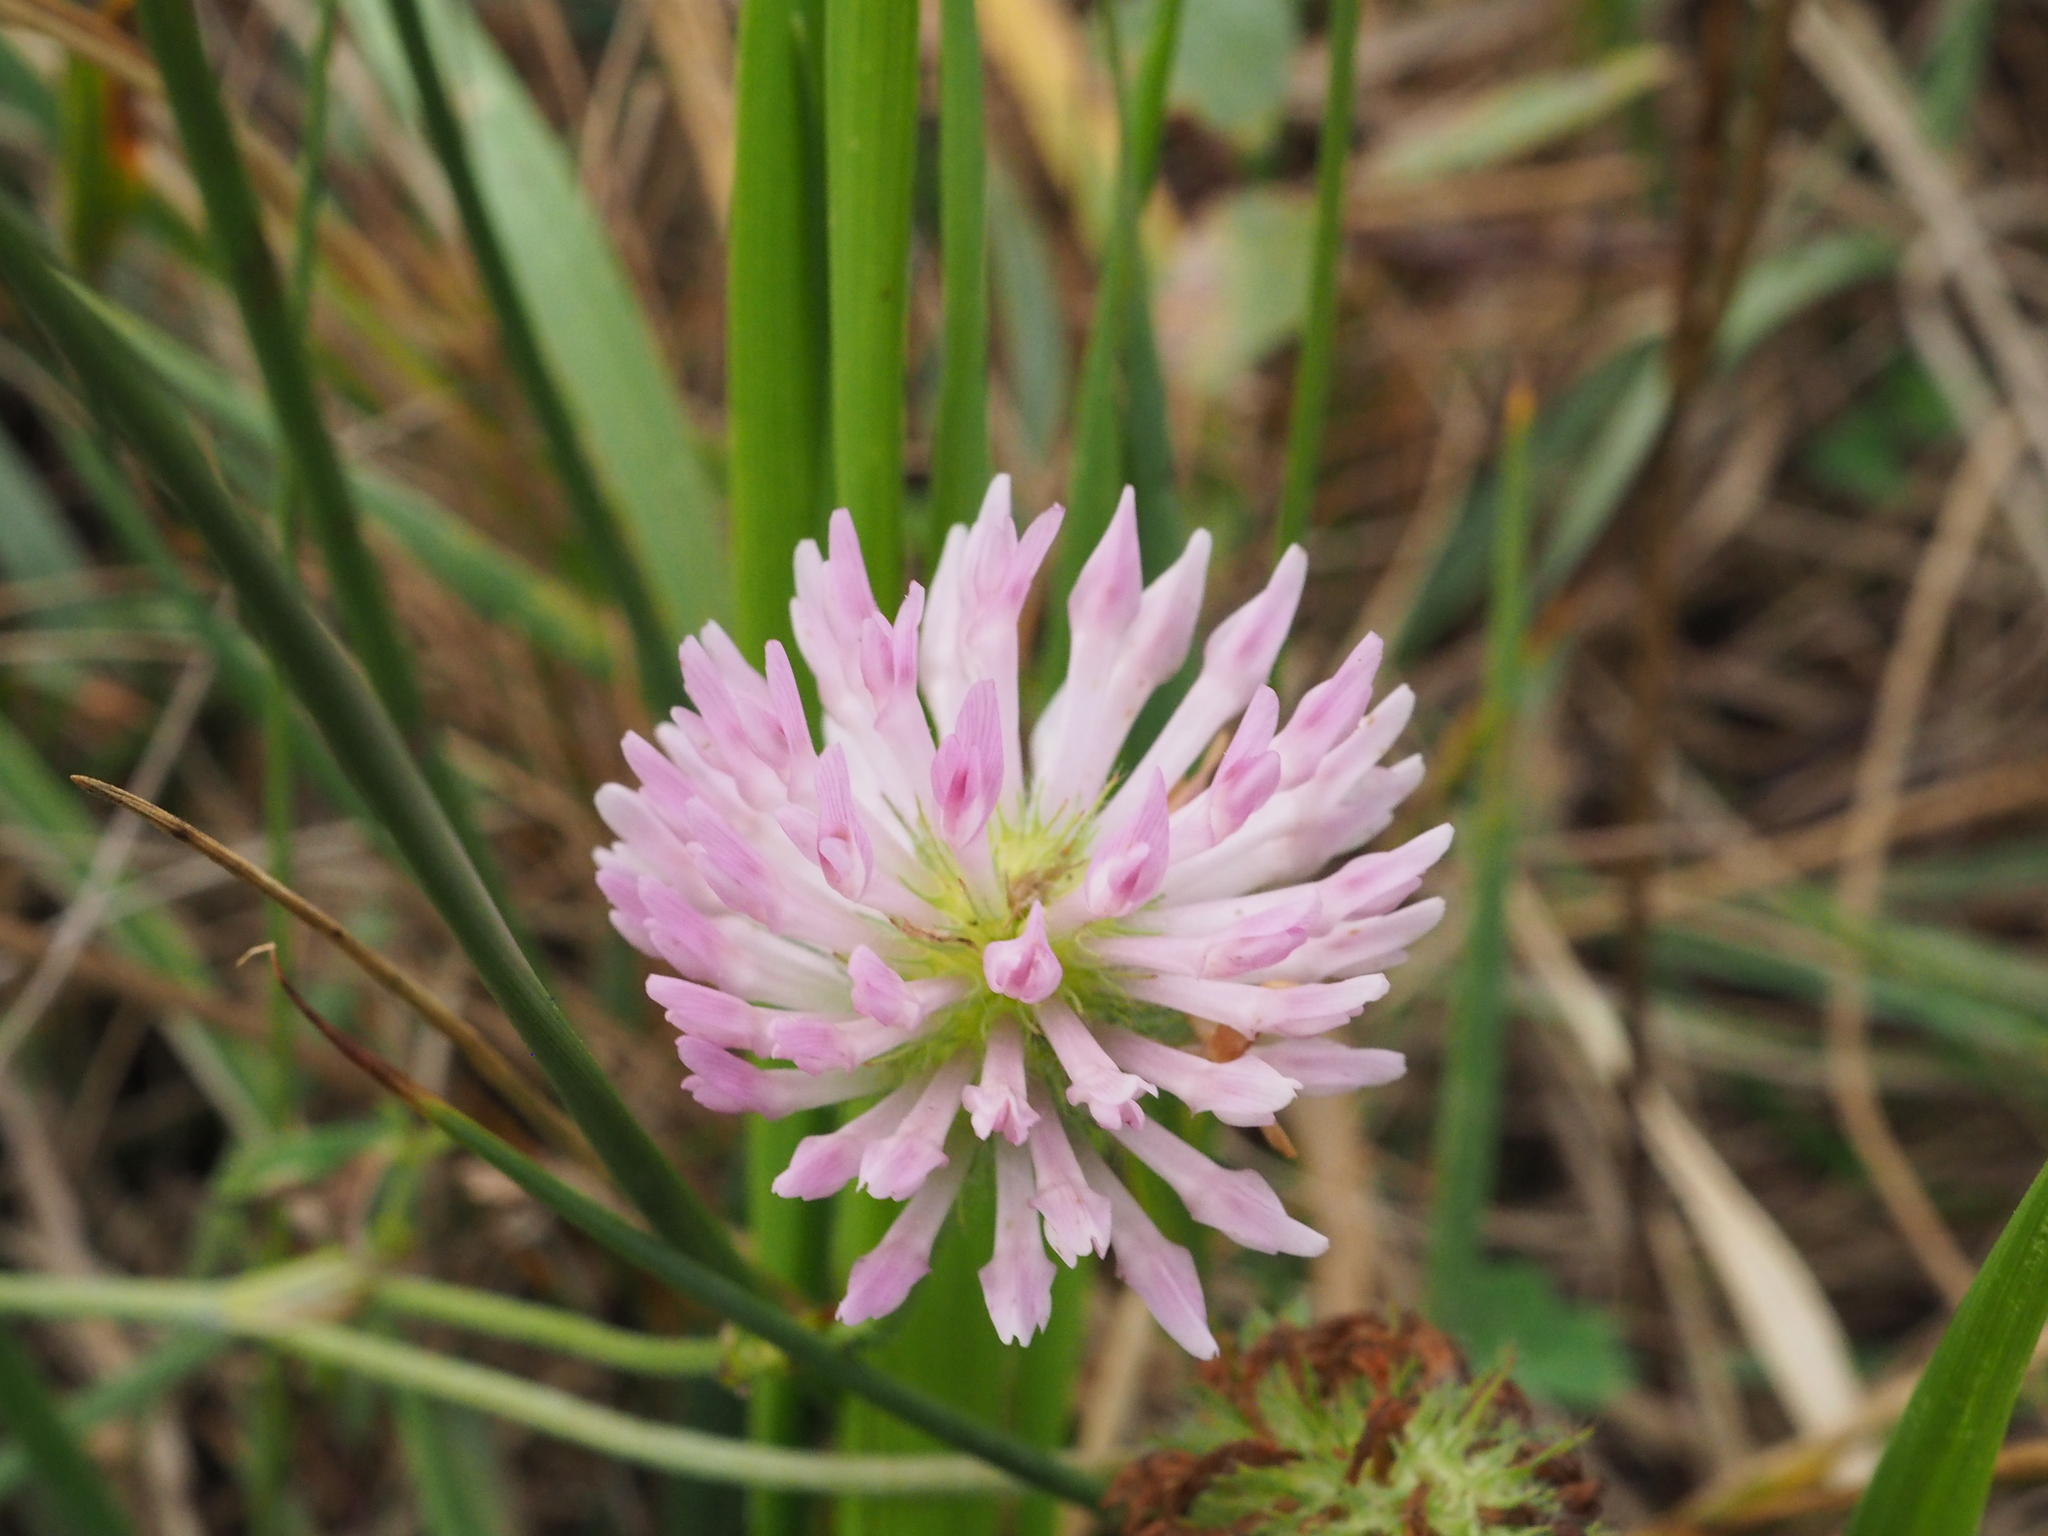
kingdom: Plantae
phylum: Tracheophyta
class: Magnoliopsida
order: Fabales
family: Fabaceae
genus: Trifolium
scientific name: Trifolium pratense
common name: Red clover
